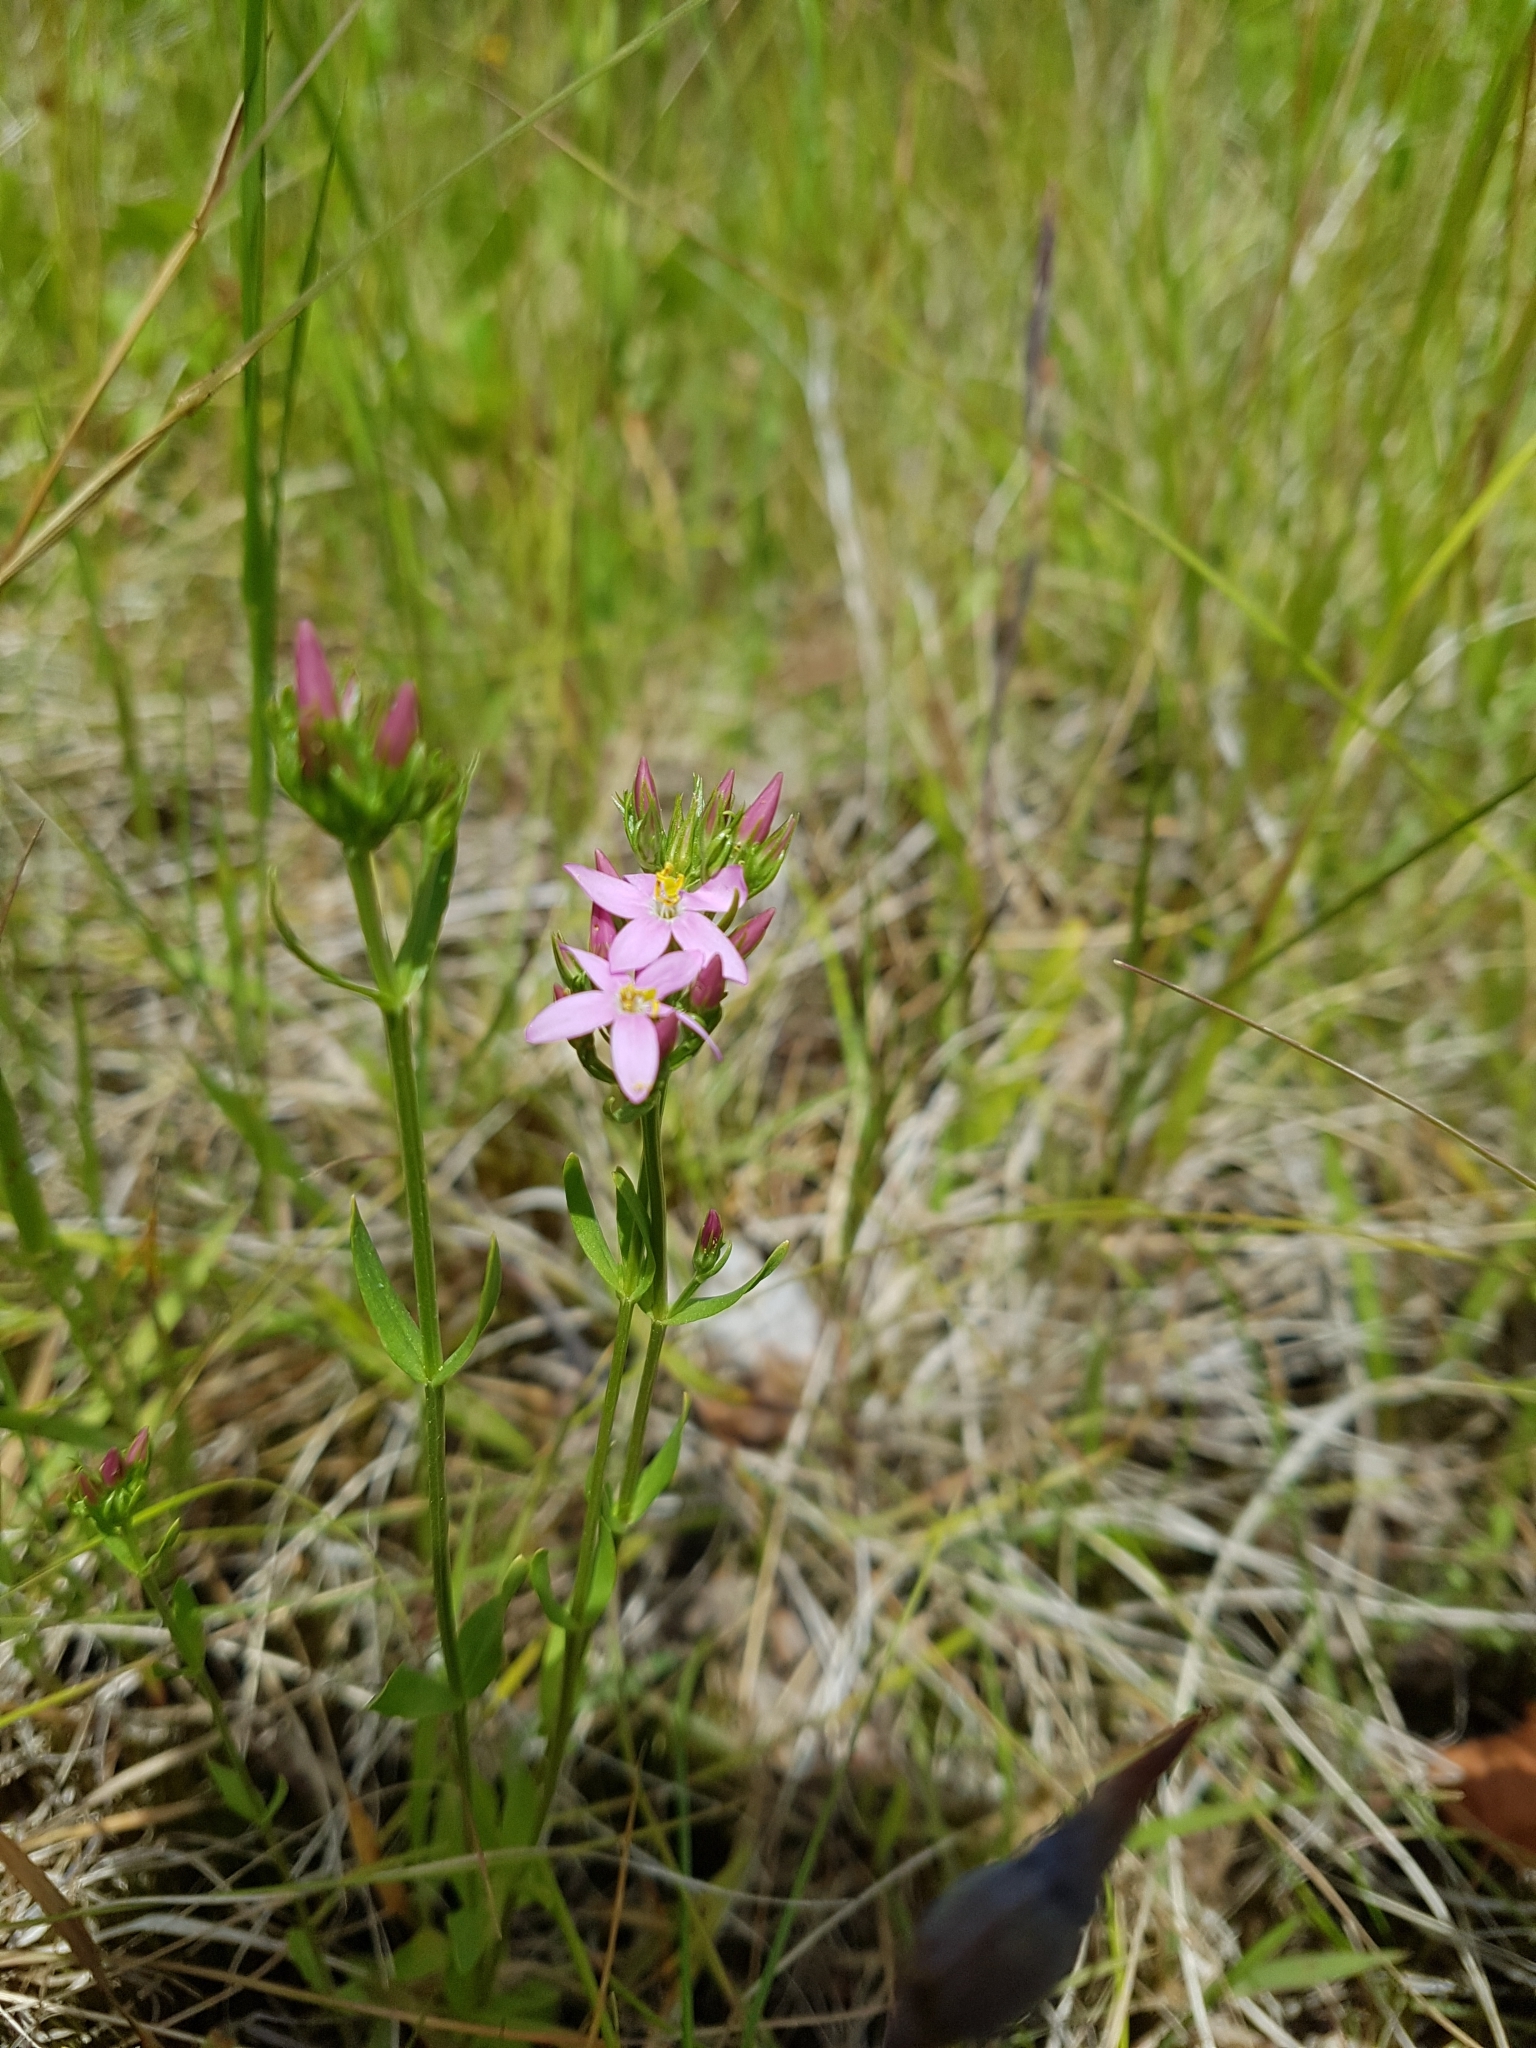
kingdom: Plantae
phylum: Tracheophyta
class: Magnoliopsida
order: Gentianales
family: Gentianaceae
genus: Centaurium
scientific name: Centaurium erythraea
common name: Common centaury
